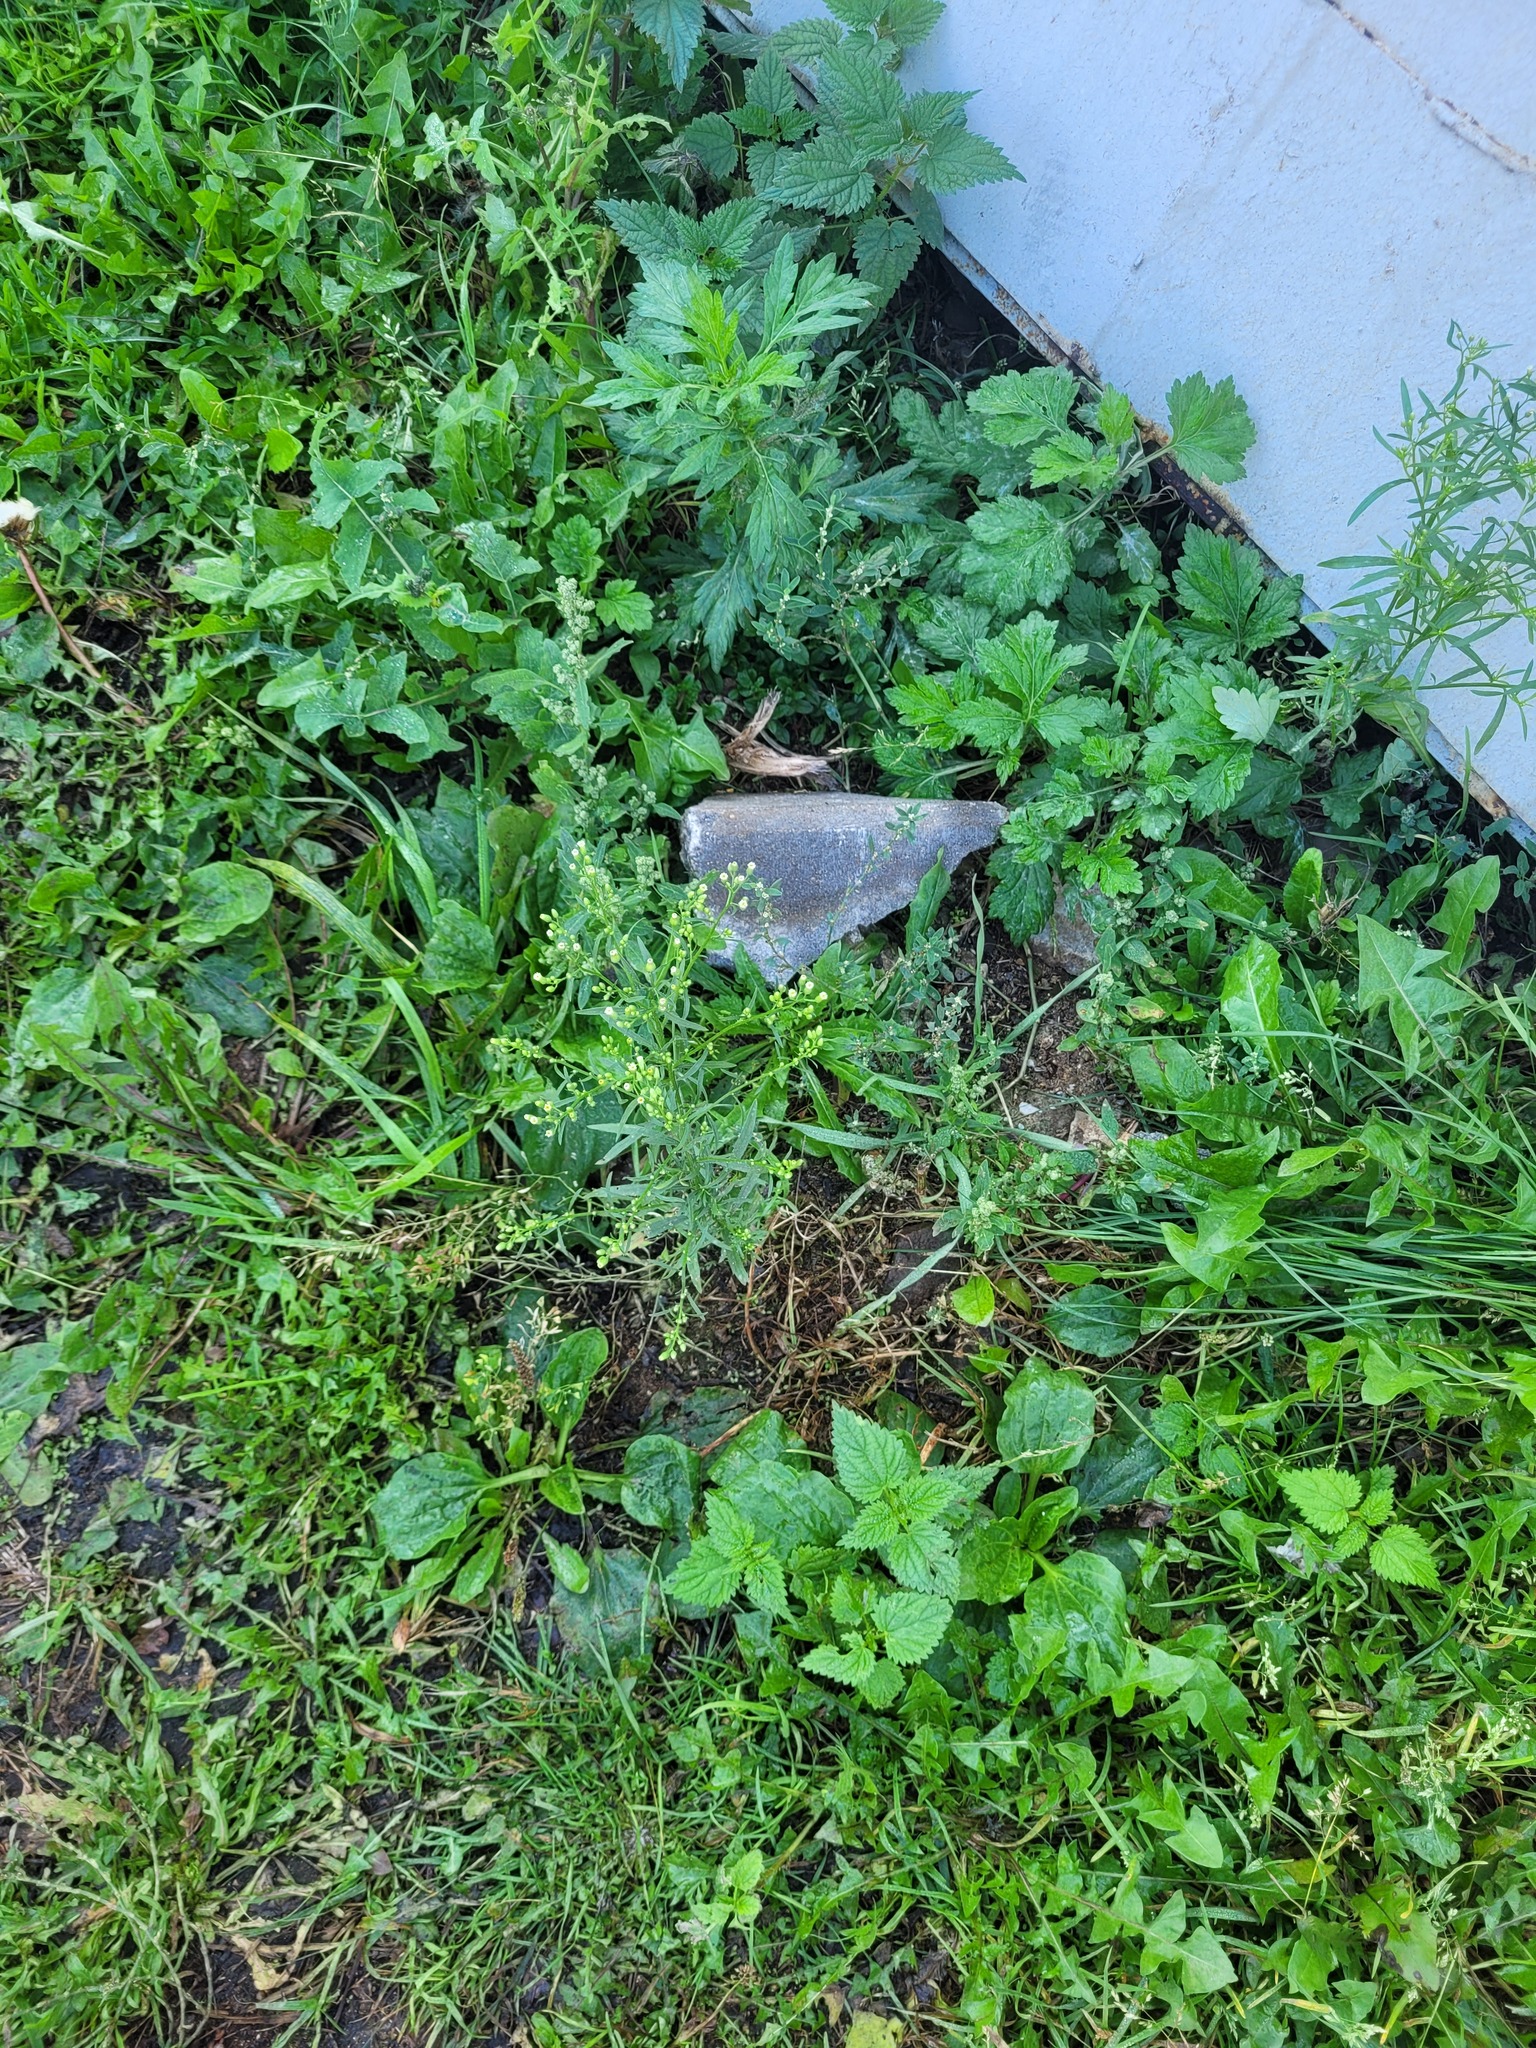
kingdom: Plantae
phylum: Tracheophyta
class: Magnoliopsida
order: Asterales
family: Asteraceae
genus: Erigeron
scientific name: Erigeron canadensis
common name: Canadian fleabane
